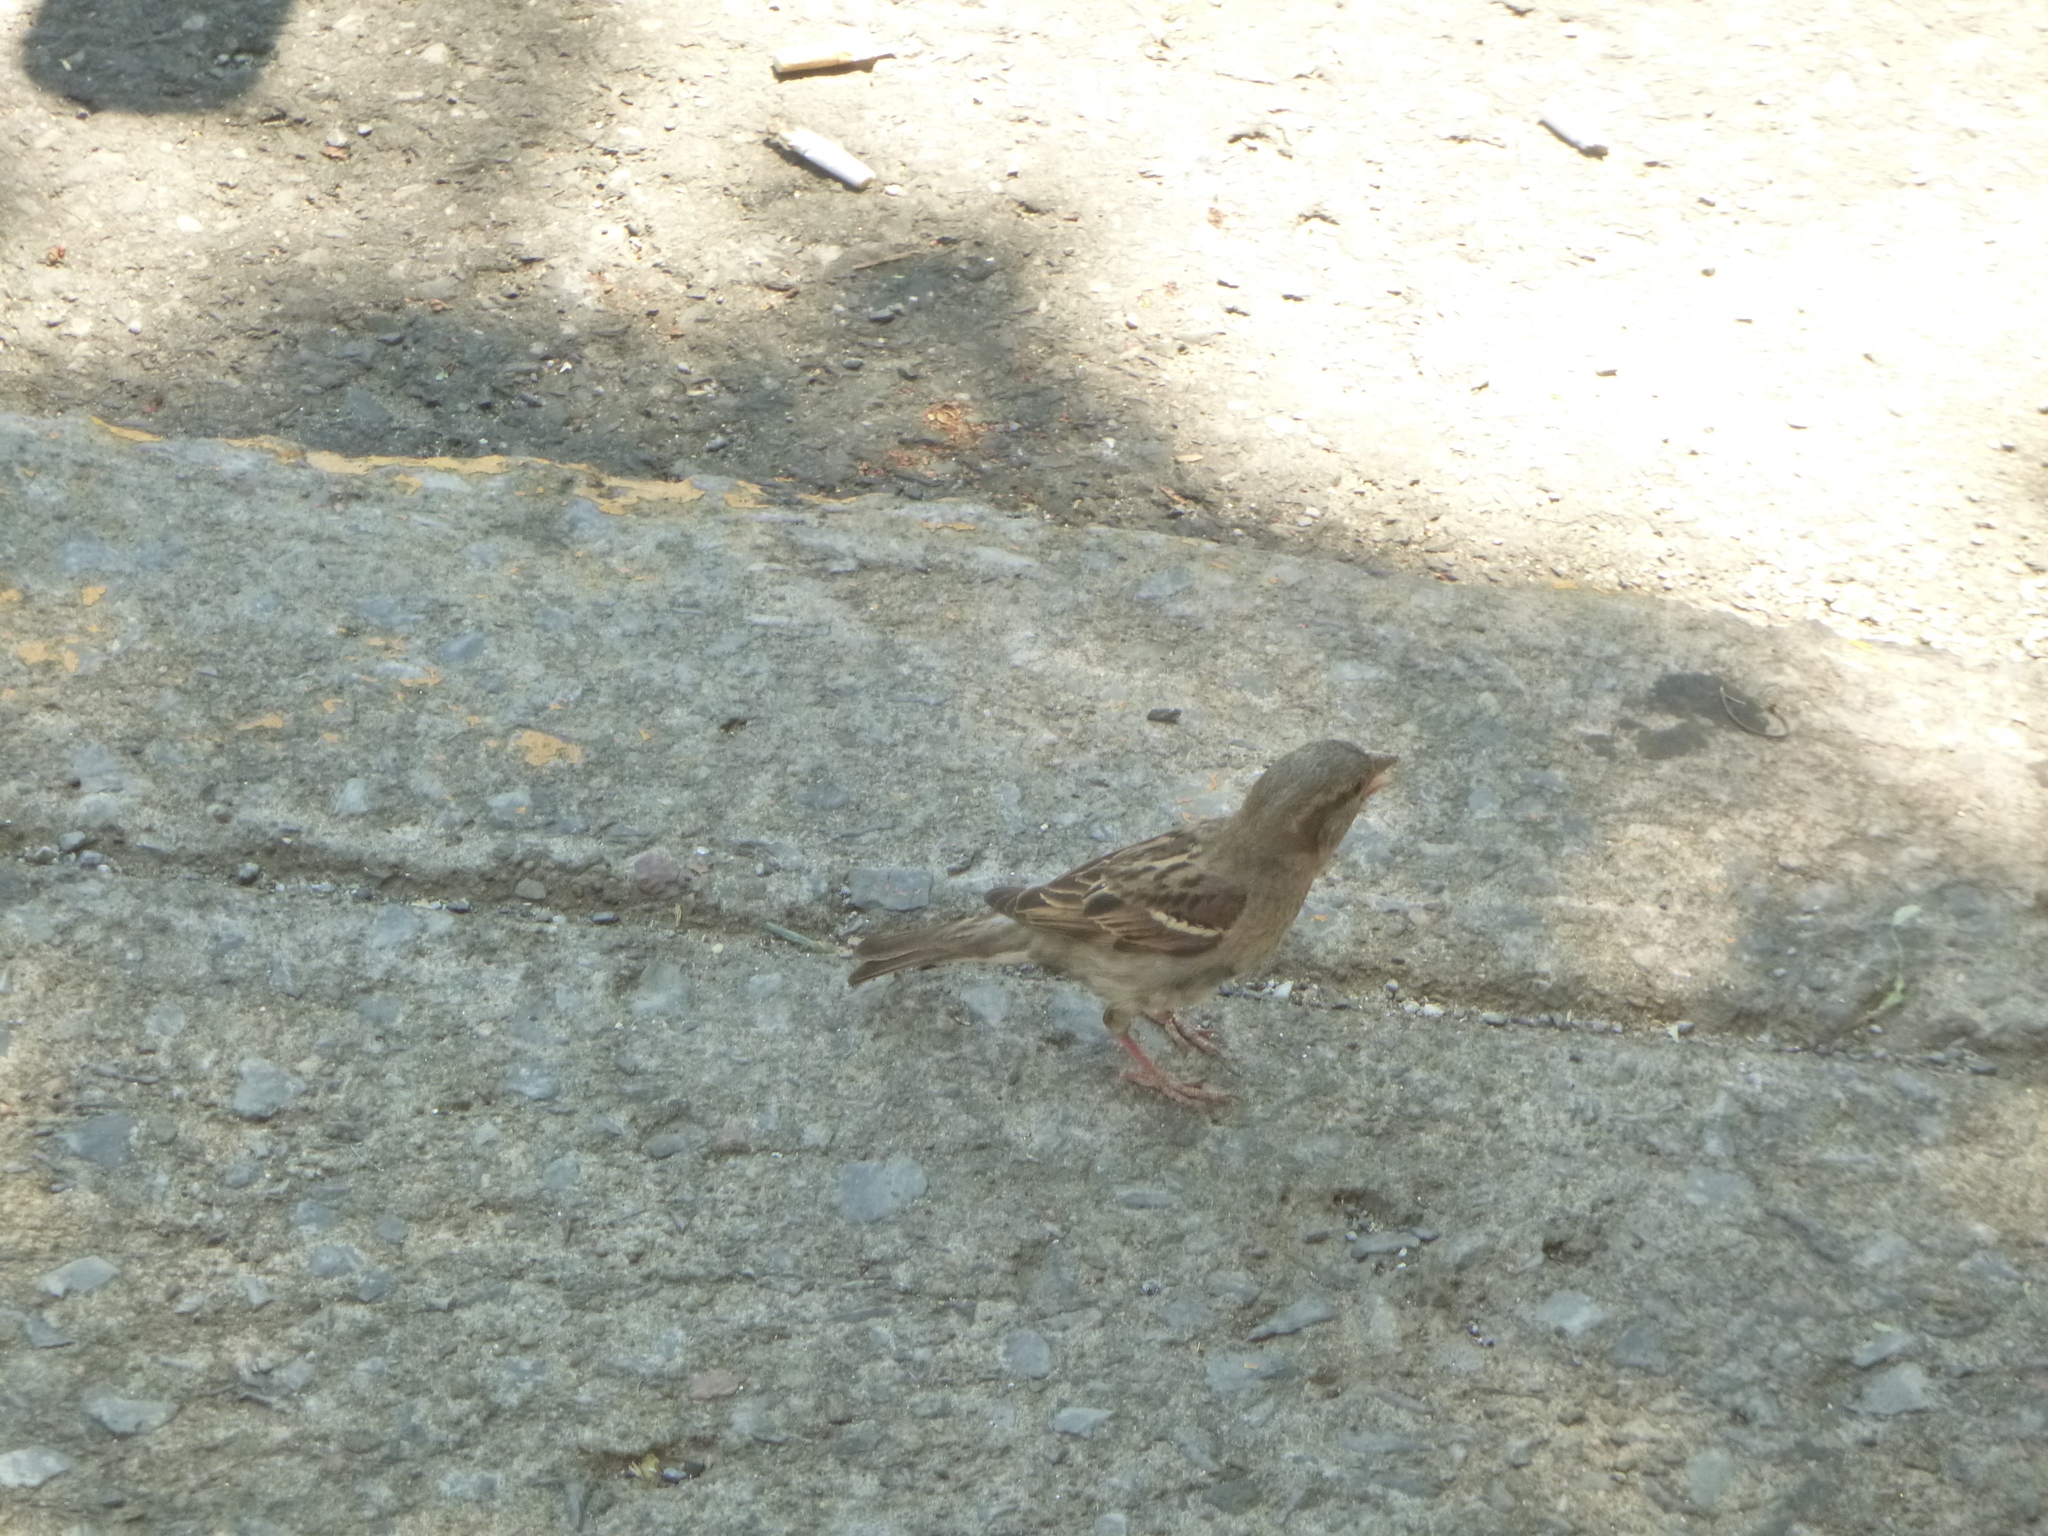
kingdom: Animalia
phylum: Chordata
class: Aves
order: Passeriformes
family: Passeridae
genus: Passer
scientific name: Passer domesticus
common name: House sparrow
